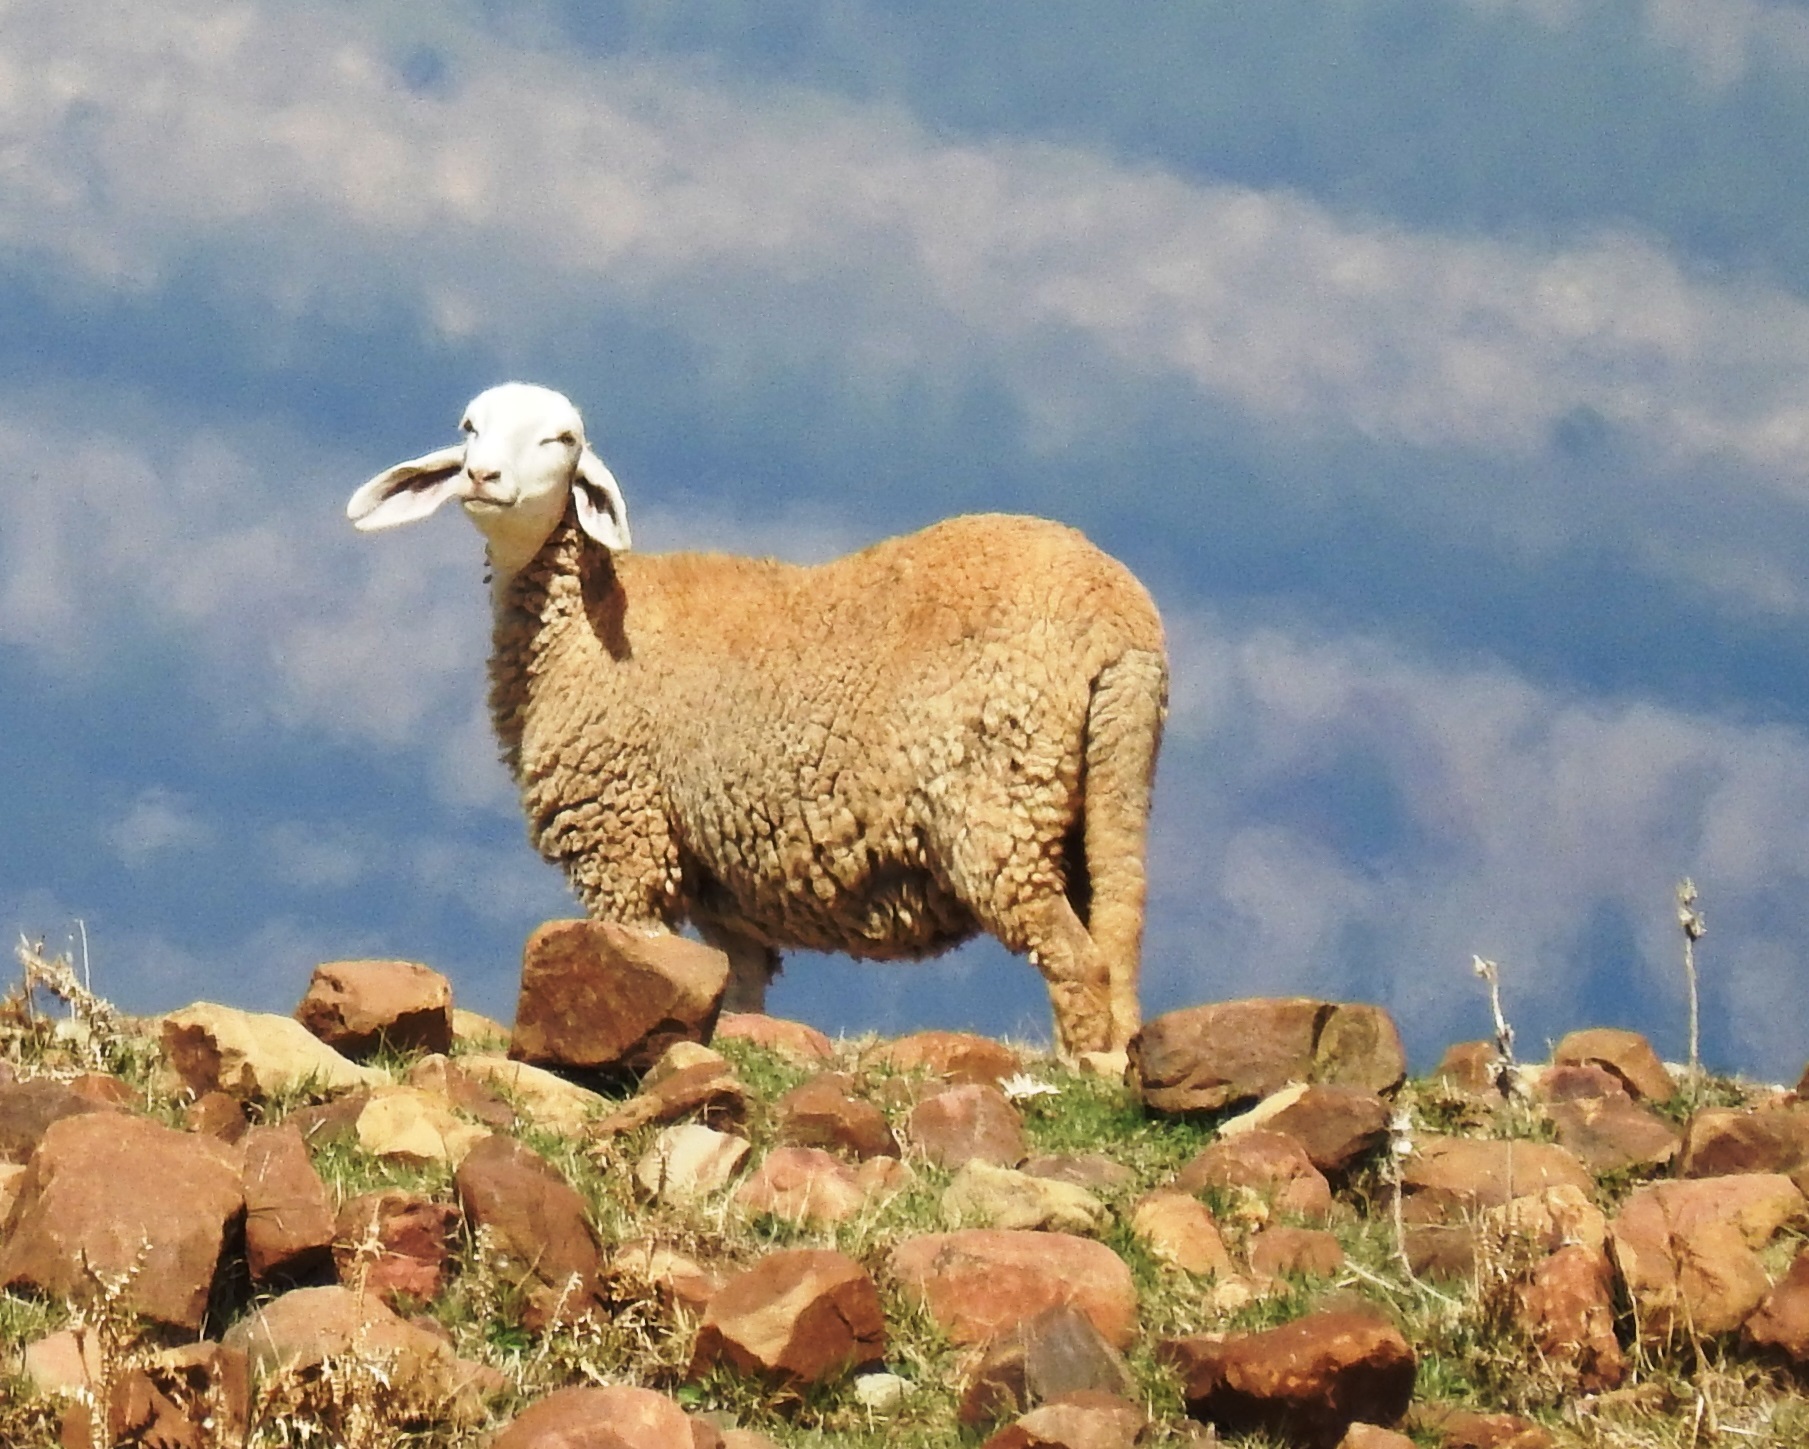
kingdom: Animalia
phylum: Chordata
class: Mammalia
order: Artiodactyla
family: Bovidae
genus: Ovis
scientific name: Ovis aries
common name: Domestic sheep
